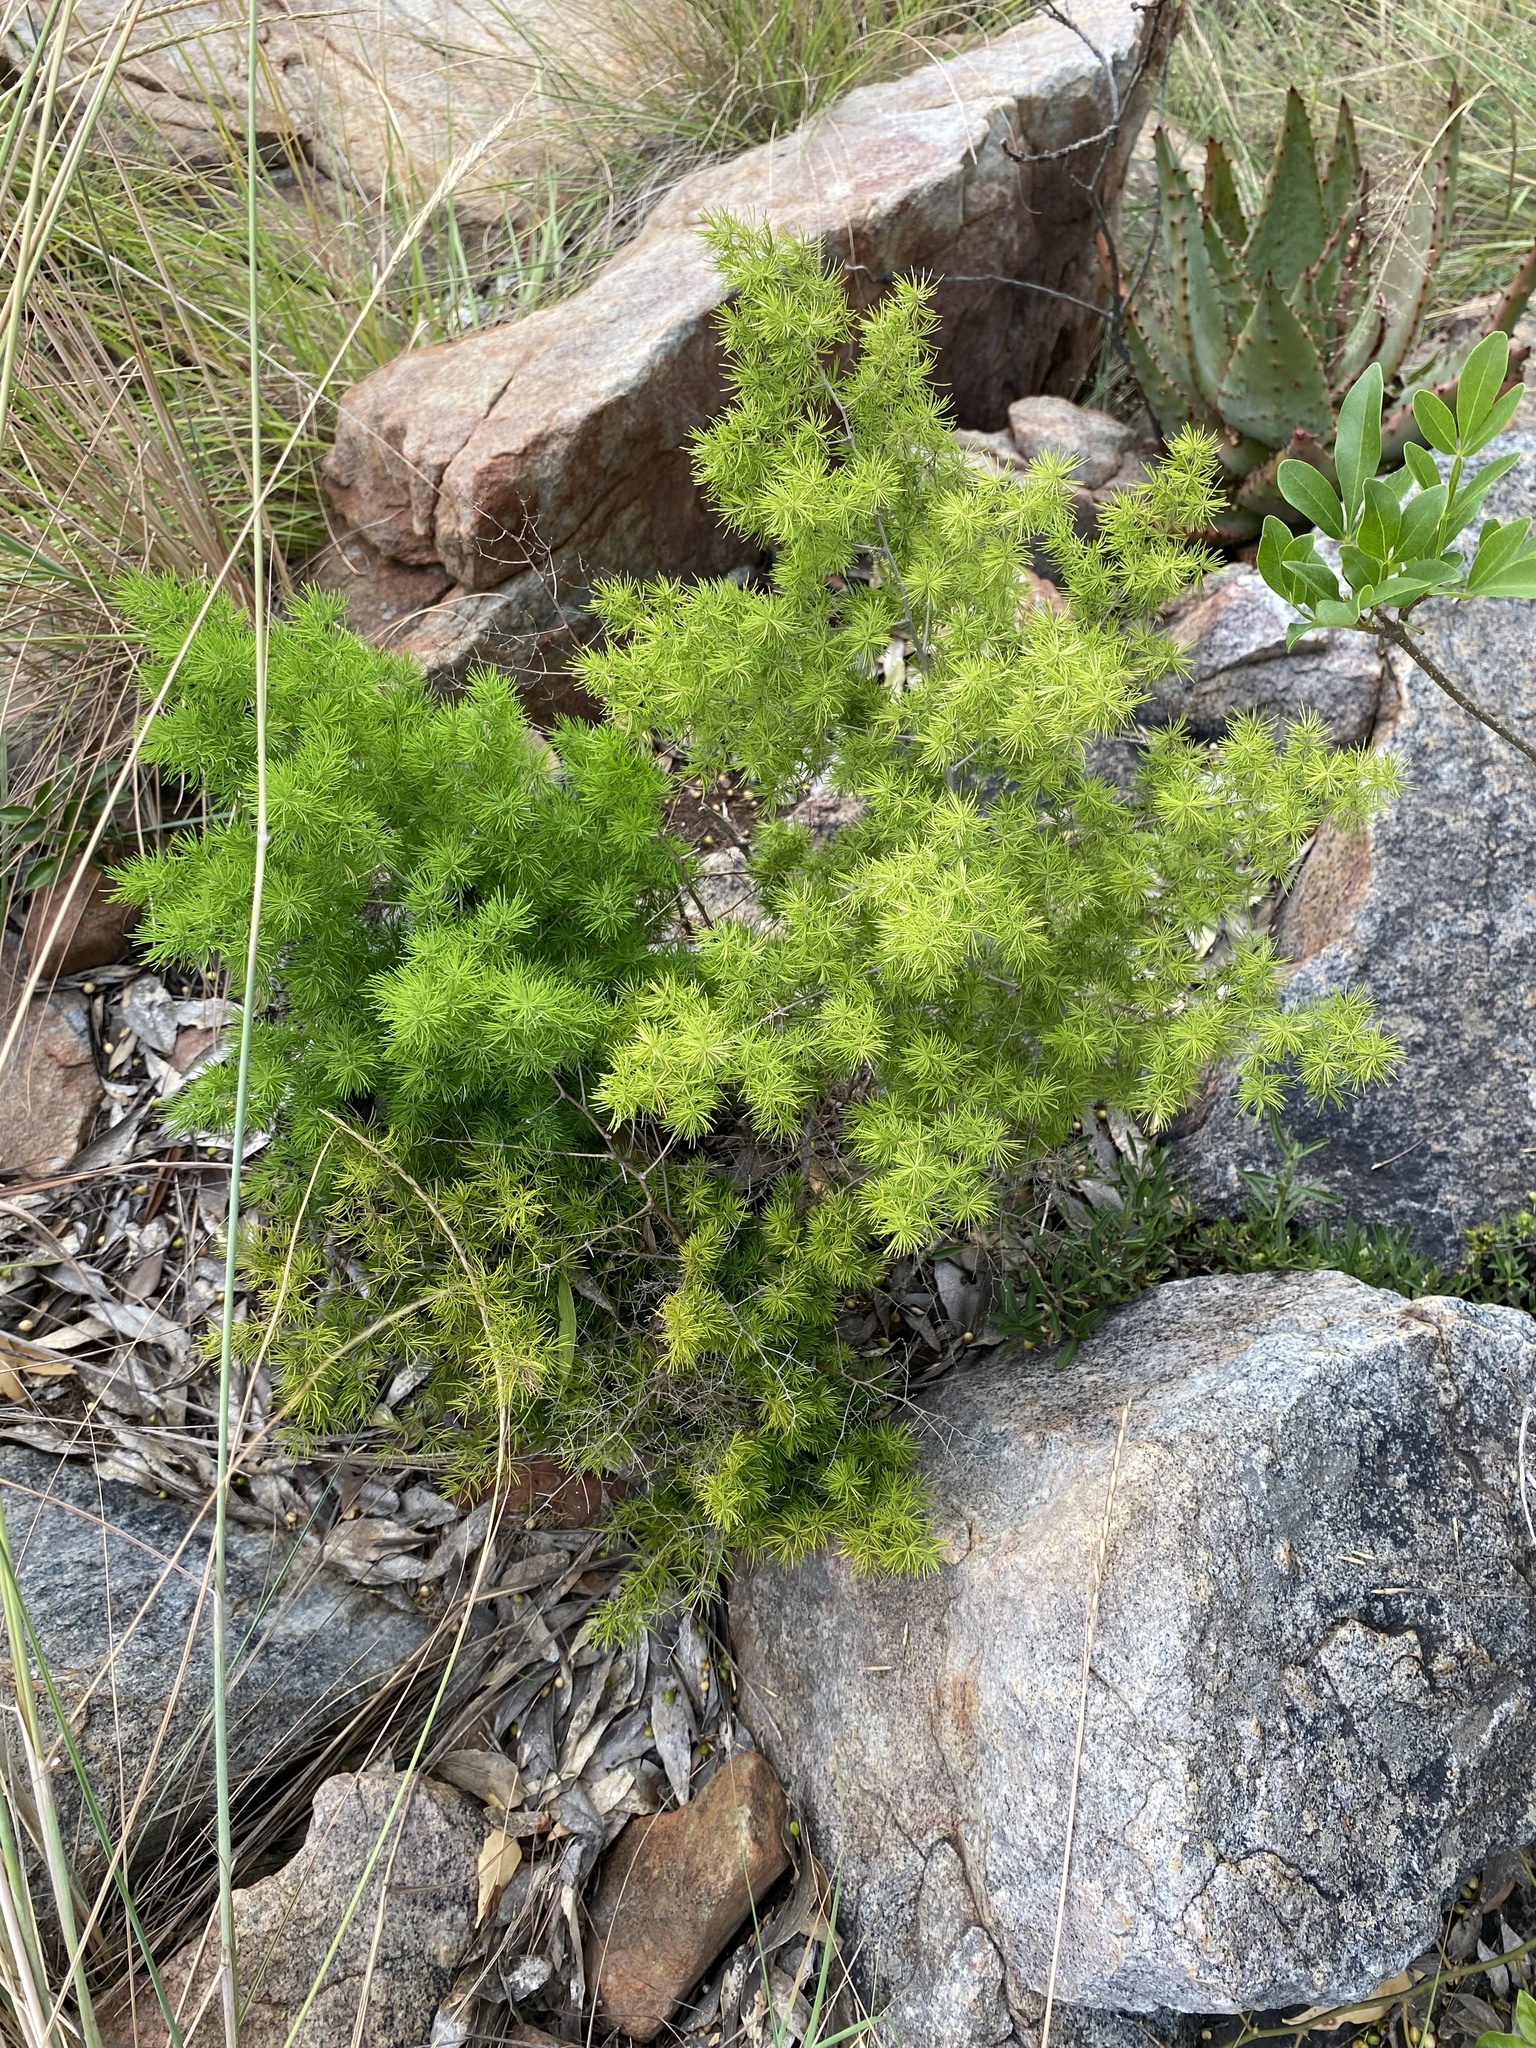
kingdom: Plantae
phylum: Tracheophyta
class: Liliopsida
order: Asparagales
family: Asparagaceae
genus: Asparagus
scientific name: Asparagus macowanii
